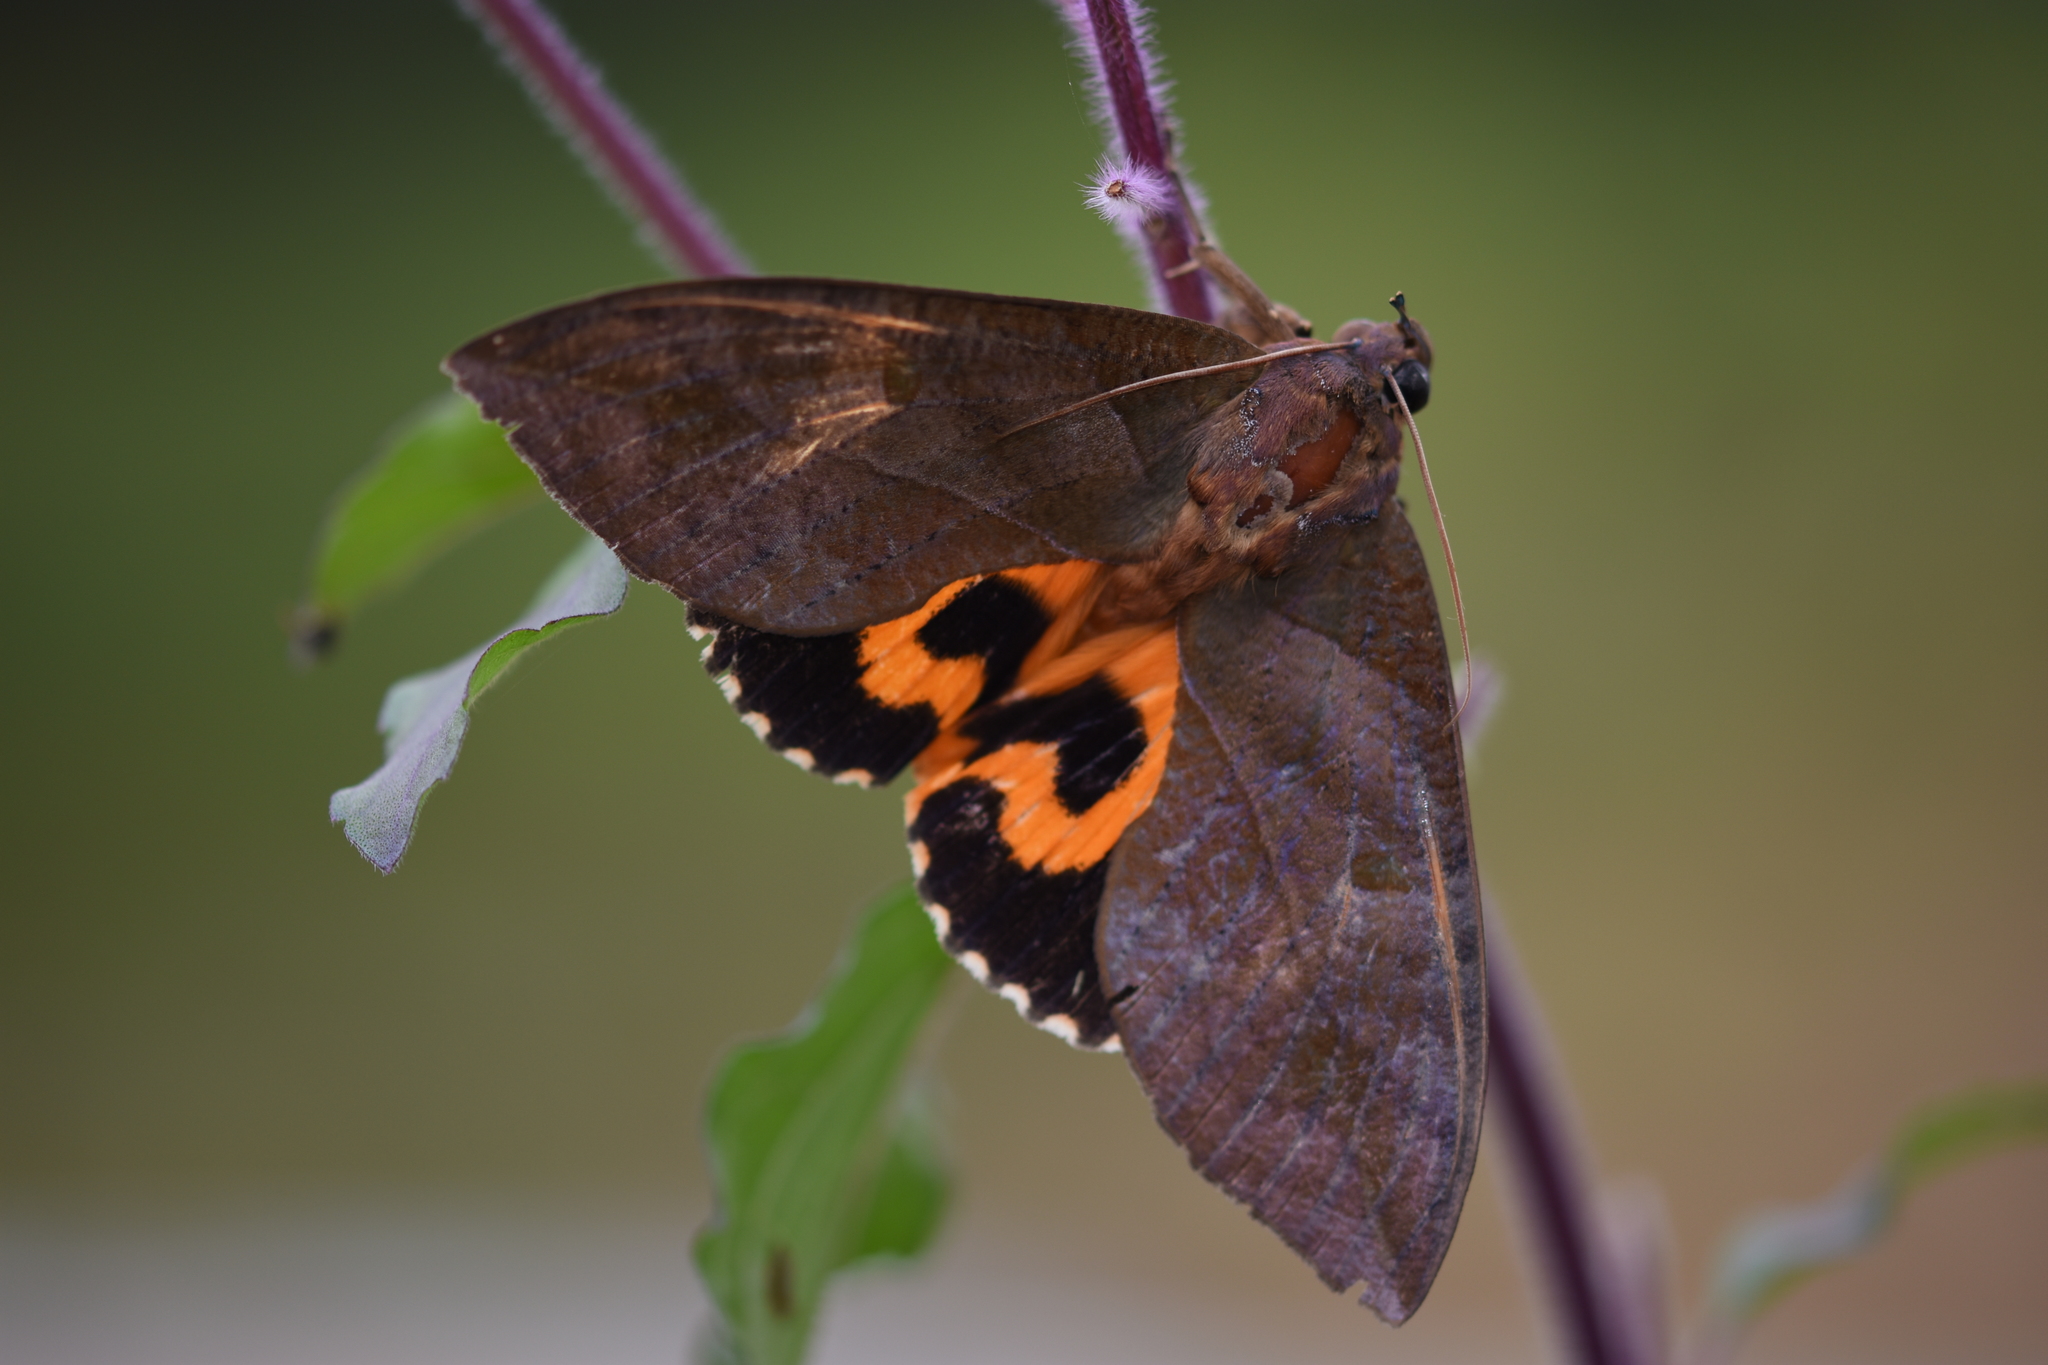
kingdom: Animalia
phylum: Arthropoda
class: Insecta
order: Lepidoptera
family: Erebidae
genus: Eudocima
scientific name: Eudocima phalonia
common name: Wasp
